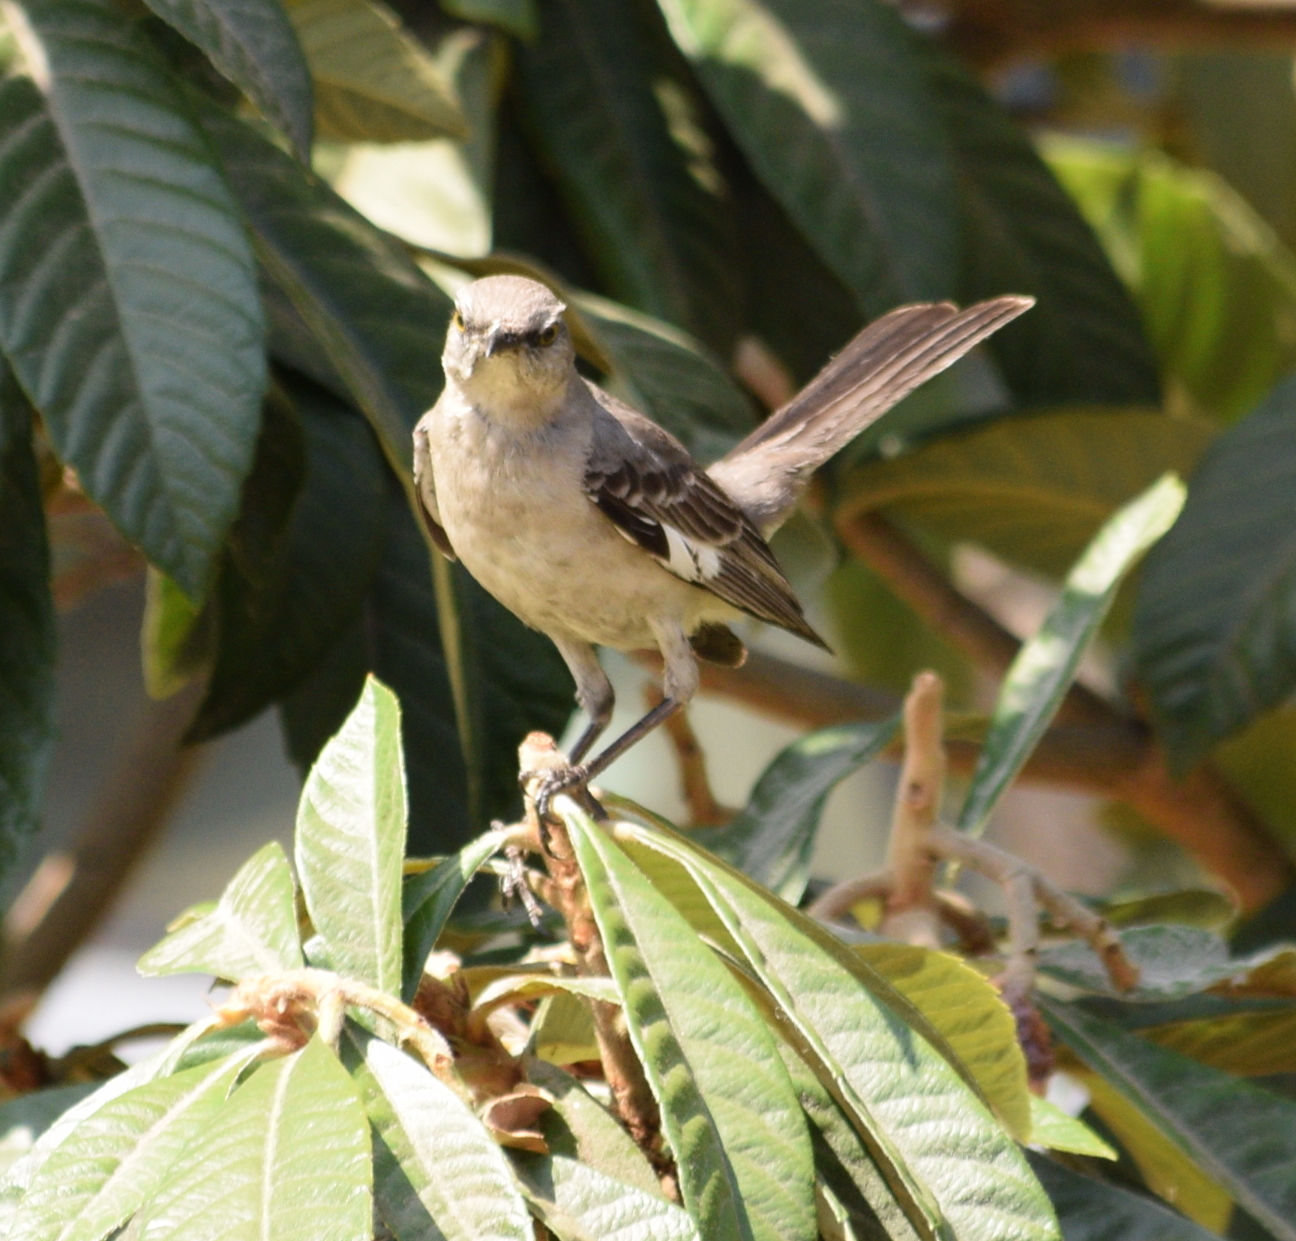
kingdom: Animalia
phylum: Chordata
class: Aves
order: Passeriformes
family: Mimidae
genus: Mimus
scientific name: Mimus polyglottos
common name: Northern mockingbird
